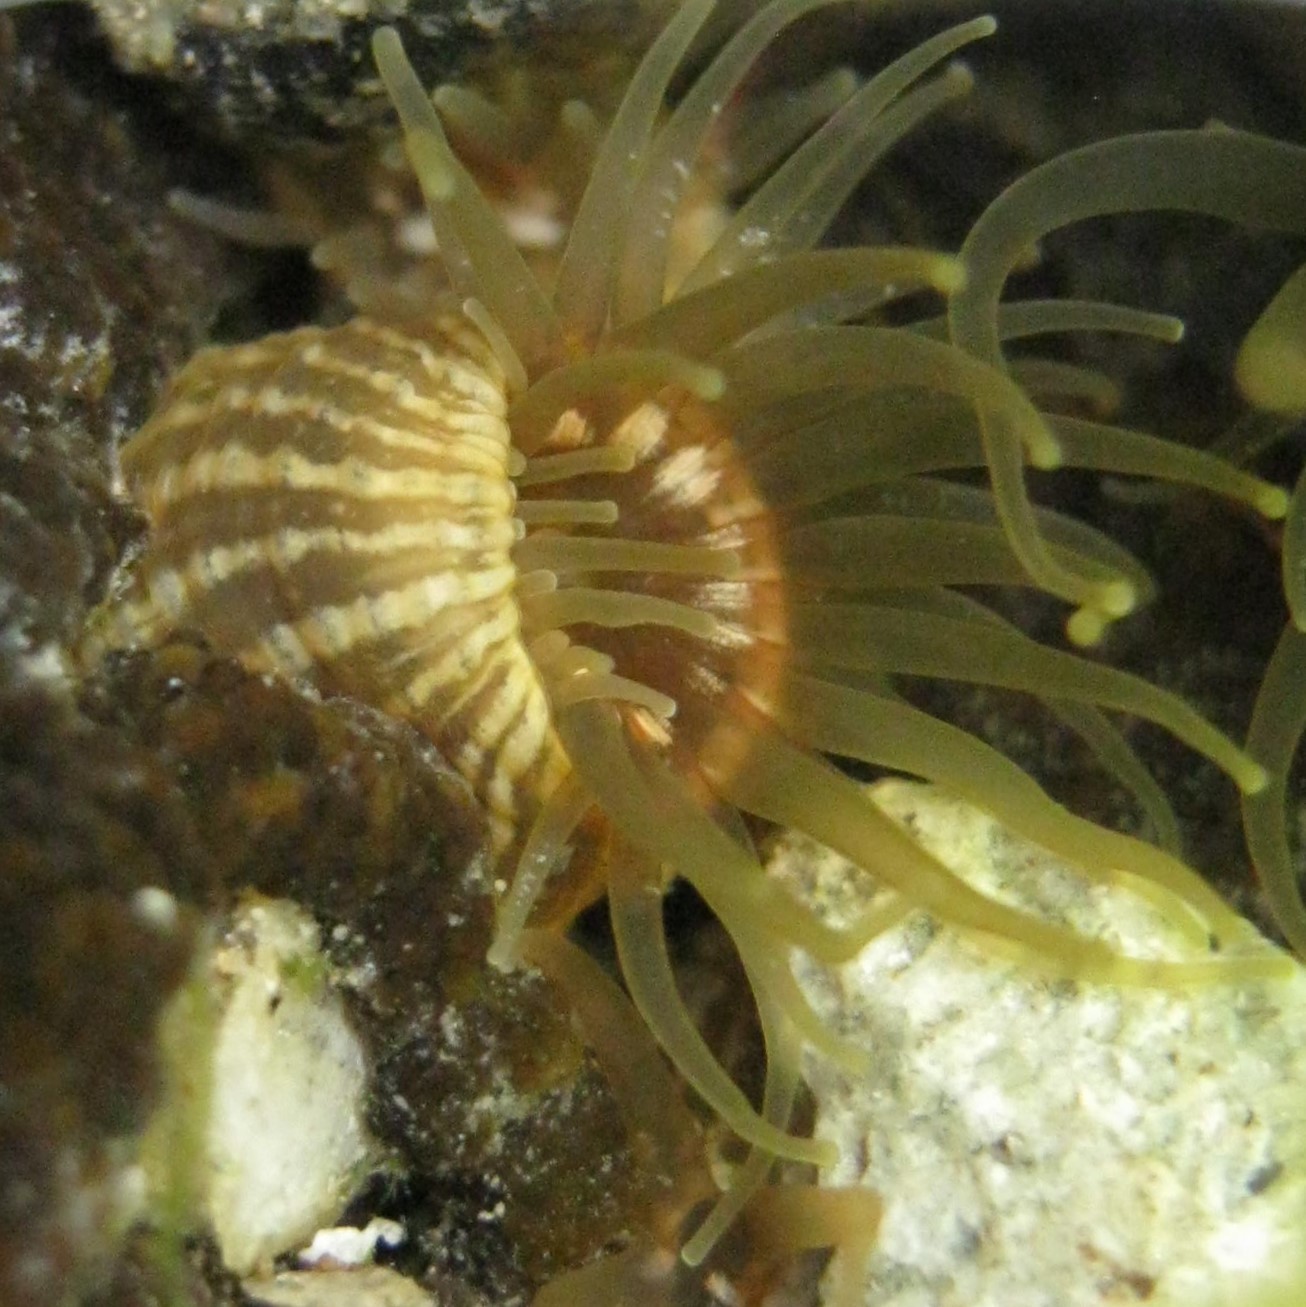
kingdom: Animalia
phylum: Cnidaria
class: Anthozoa
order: Actiniaria
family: Actiniidae
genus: Anthopleura
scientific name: Anthopleura hermaphroditica
